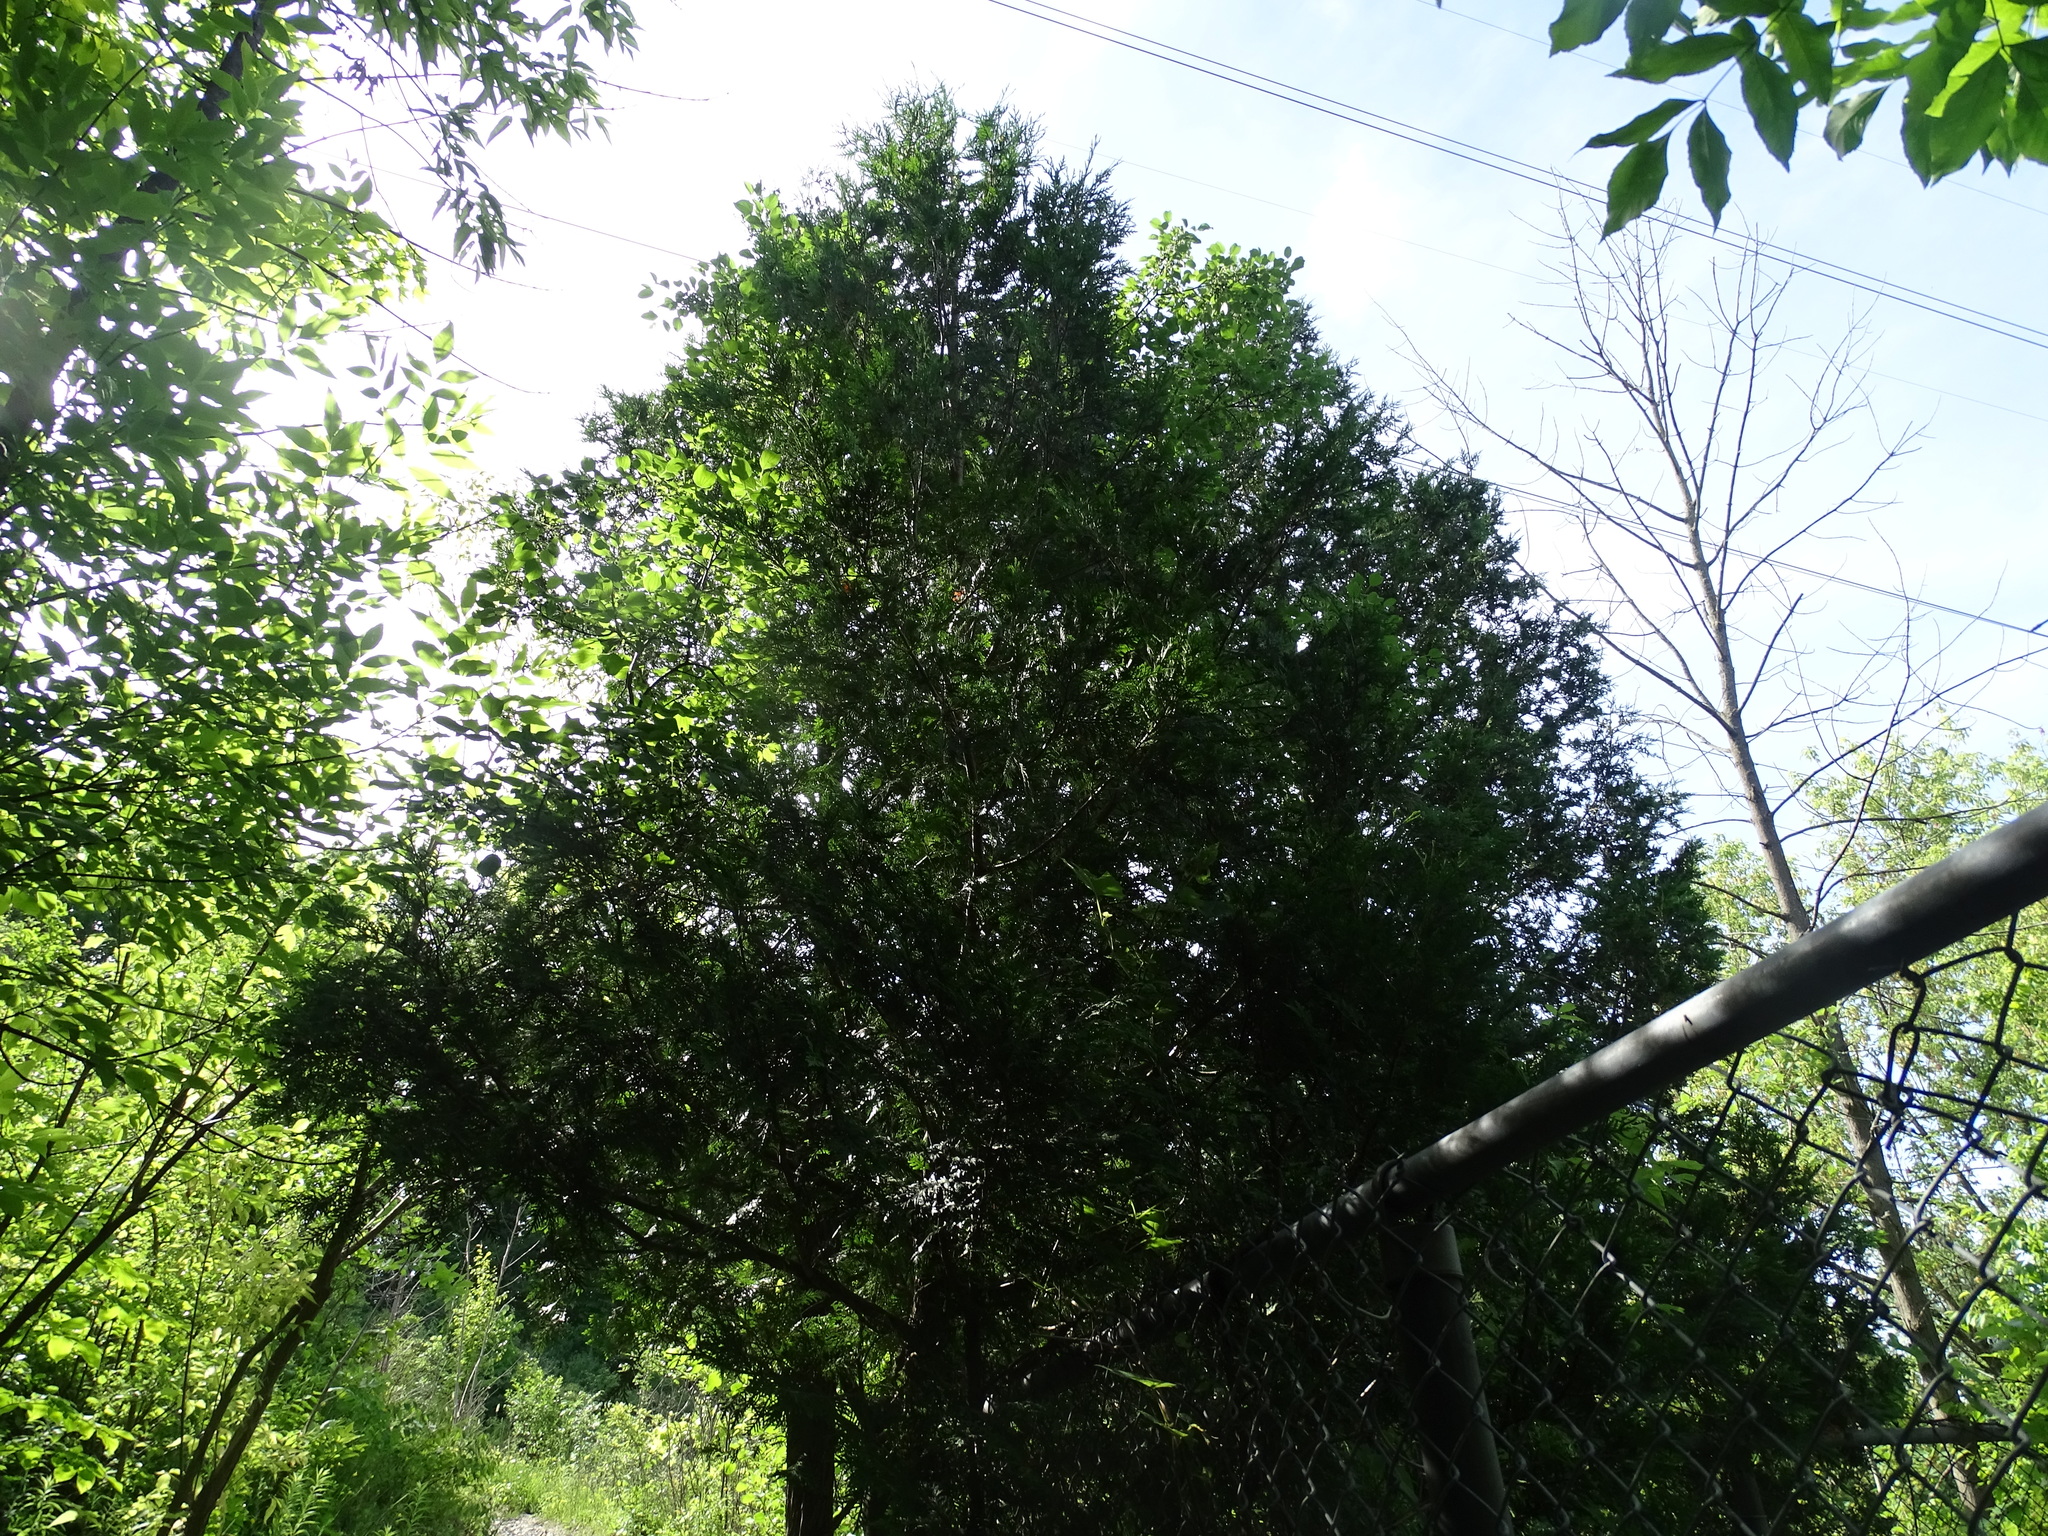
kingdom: Plantae
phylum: Tracheophyta
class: Pinopsida
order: Pinales
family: Cupressaceae
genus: Thuja
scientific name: Thuja occidentalis
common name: Northern white-cedar
